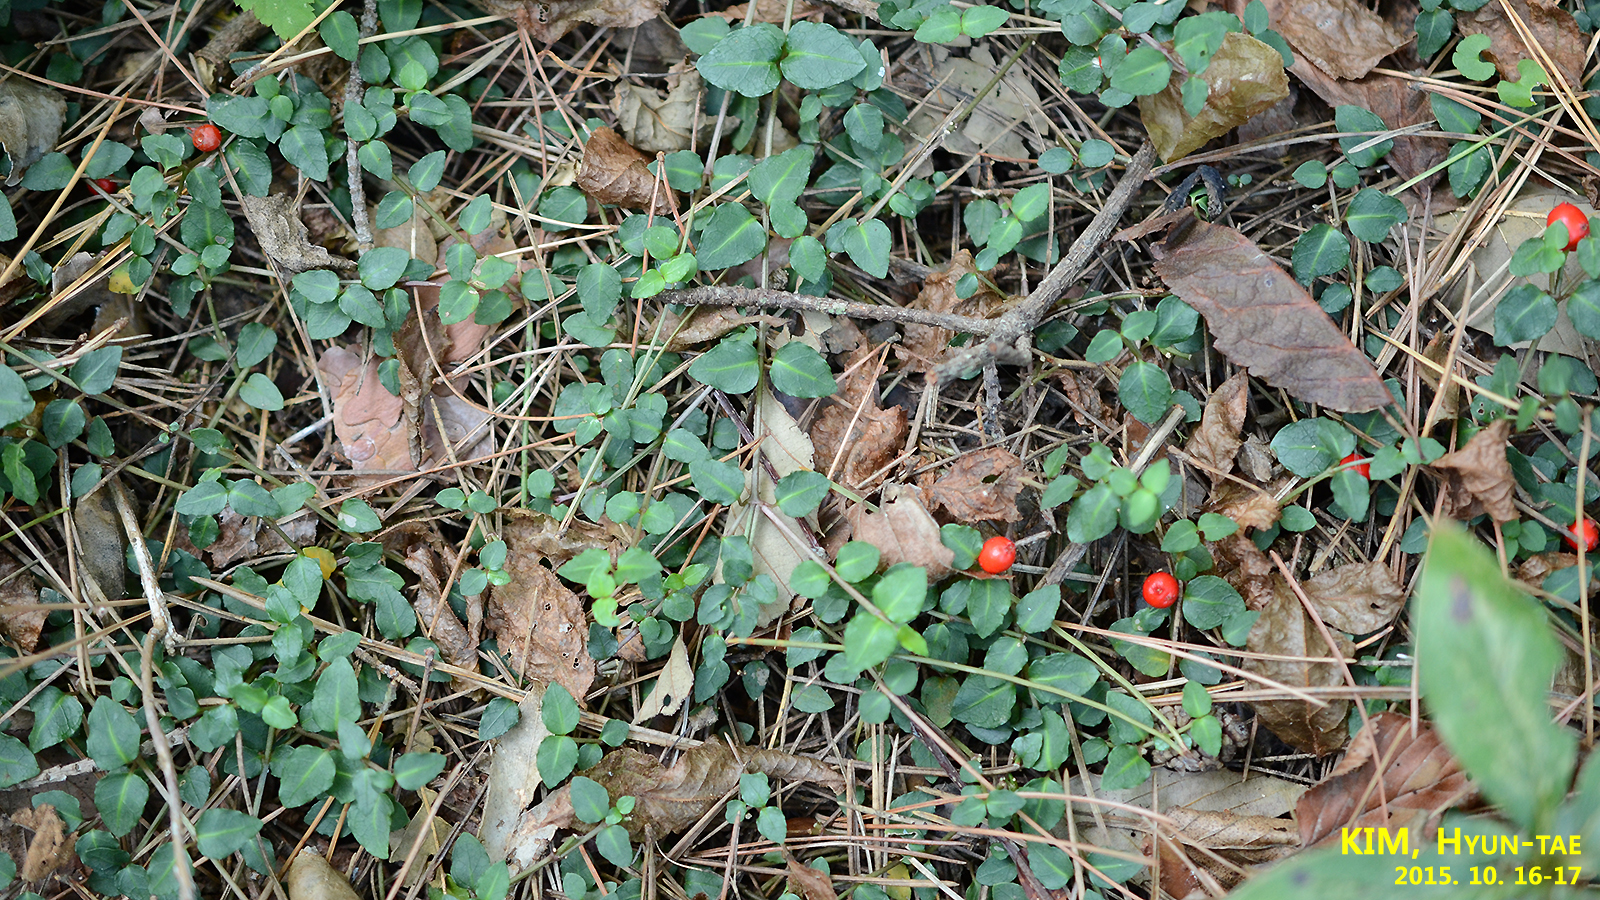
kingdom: Plantae
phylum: Tracheophyta
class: Magnoliopsida
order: Gentianales
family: Rubiaceae
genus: Mitchella
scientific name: Mitchella undulata
